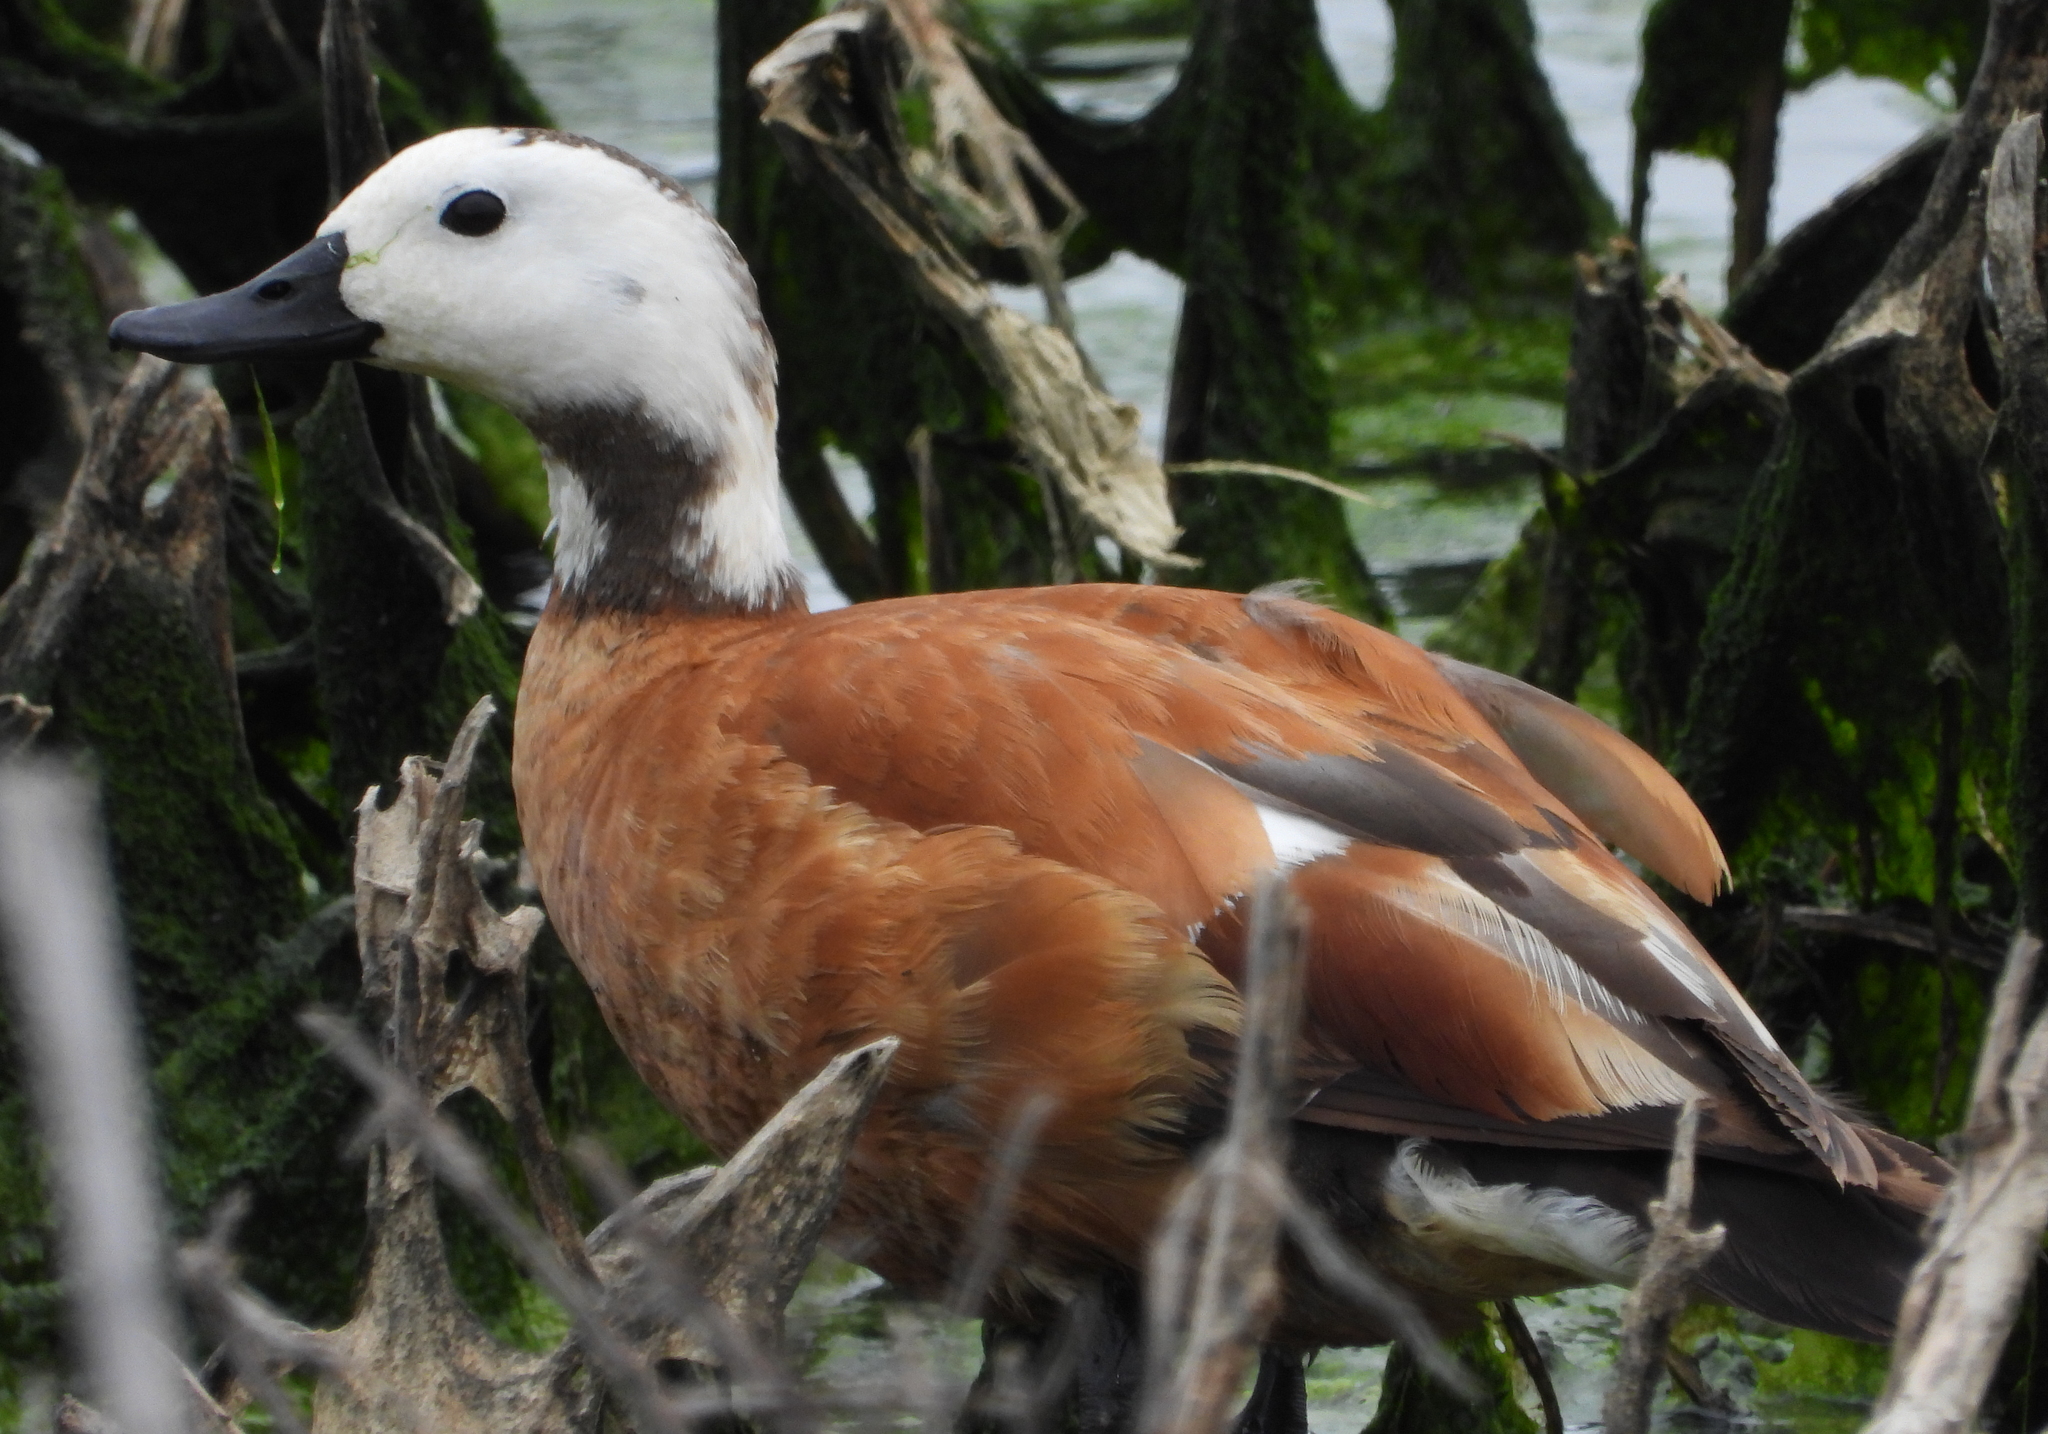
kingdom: Animalia
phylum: Chordata
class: Aves
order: Anseriformes
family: Anatidae
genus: Tadorna
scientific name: Tadorna cana
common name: South african shelduck
